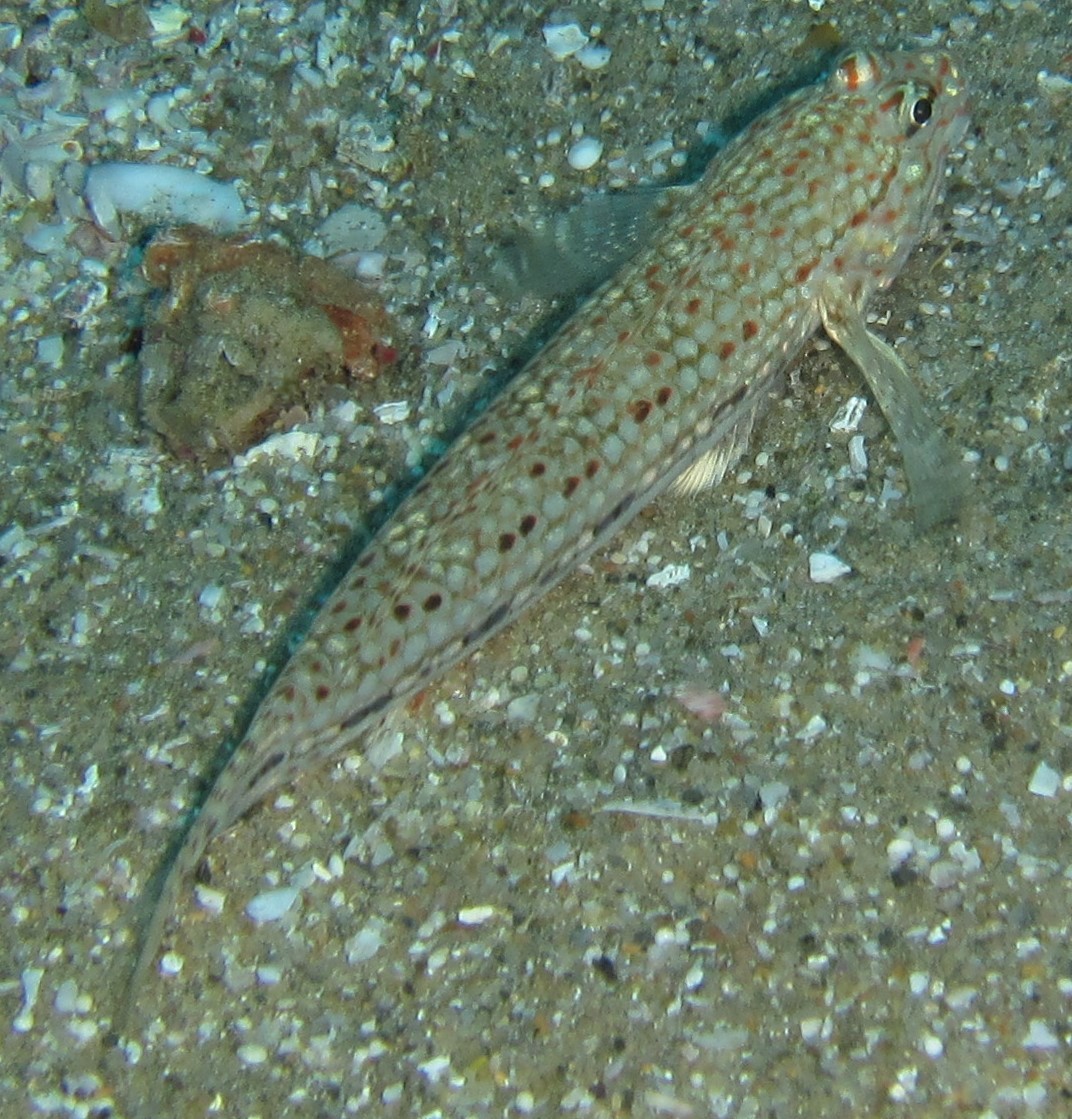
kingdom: Animalia
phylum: Chordata
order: Perciformes
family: Gobiidae
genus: Istigobius
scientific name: Istigobius decoratus
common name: Decorated goby
